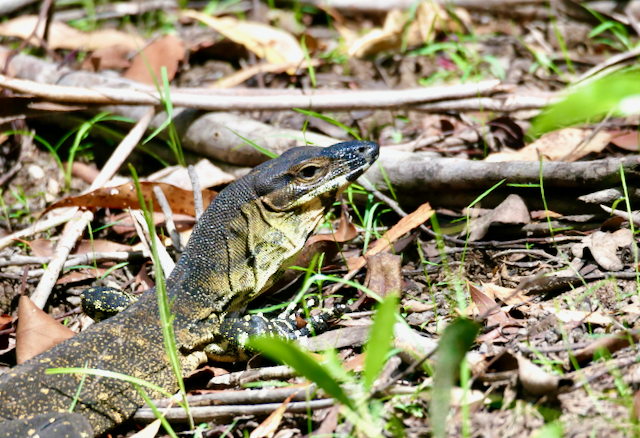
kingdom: Animalia
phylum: Chordata
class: Squamata
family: Varanidae
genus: Varanus
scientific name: Varanus varius
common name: Lace monitor
